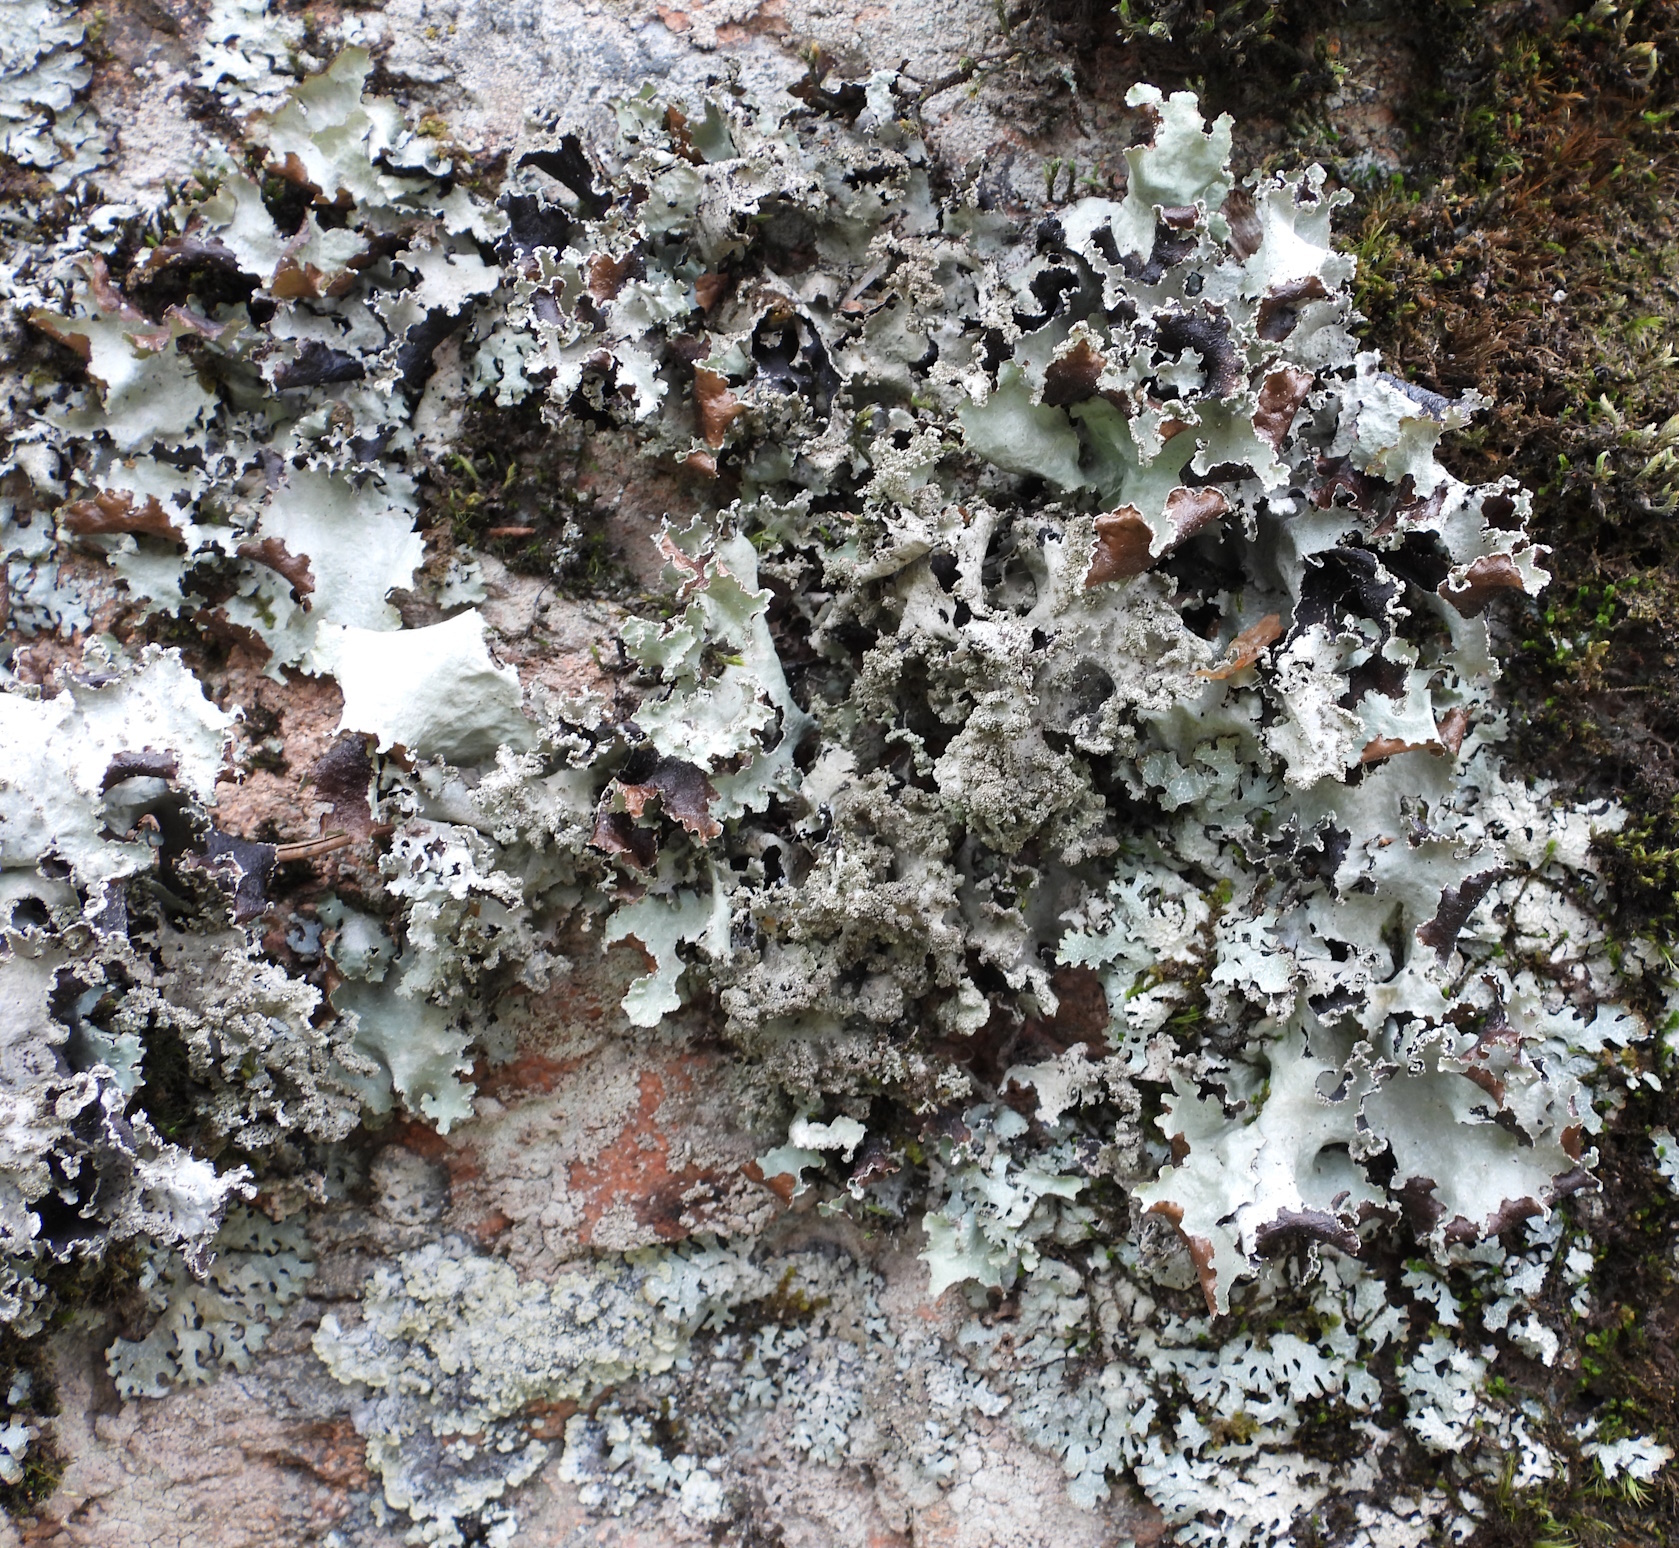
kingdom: Fungi
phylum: Ascomycota
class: Lecanoromycetes
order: Lecanorales
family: Parmeliaceae
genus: Platismatia
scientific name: Platismatia glauca
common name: Varied rag lichen
